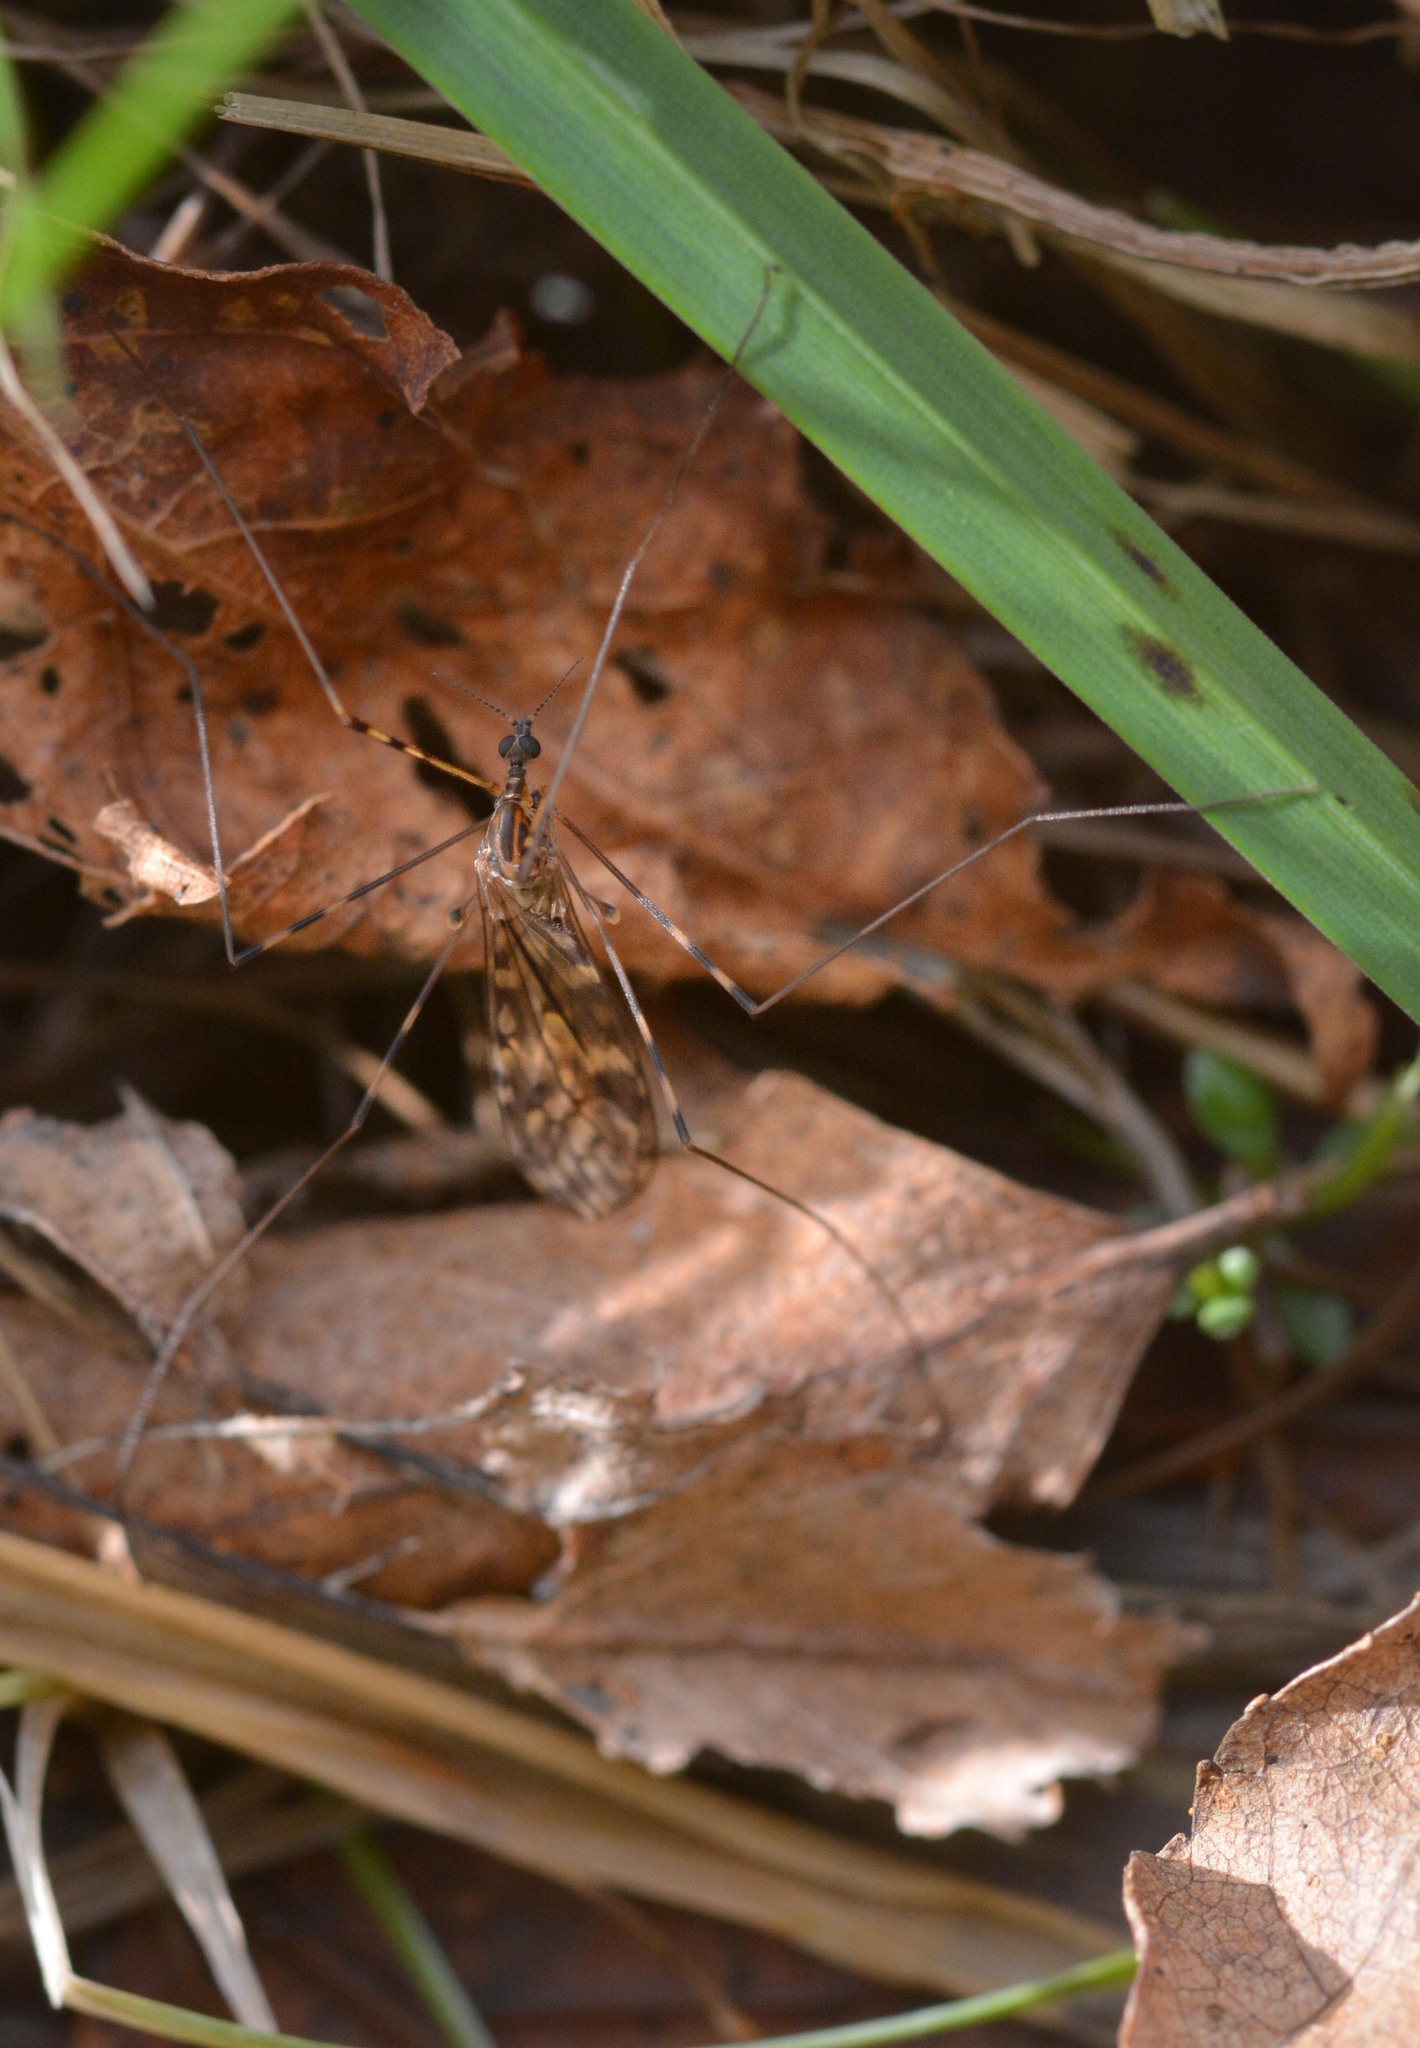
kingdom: Animalia
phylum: Arthropoda
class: Insecta
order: Diptera
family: Limoniidae
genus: Limonia
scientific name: Limonia nubeculosa
